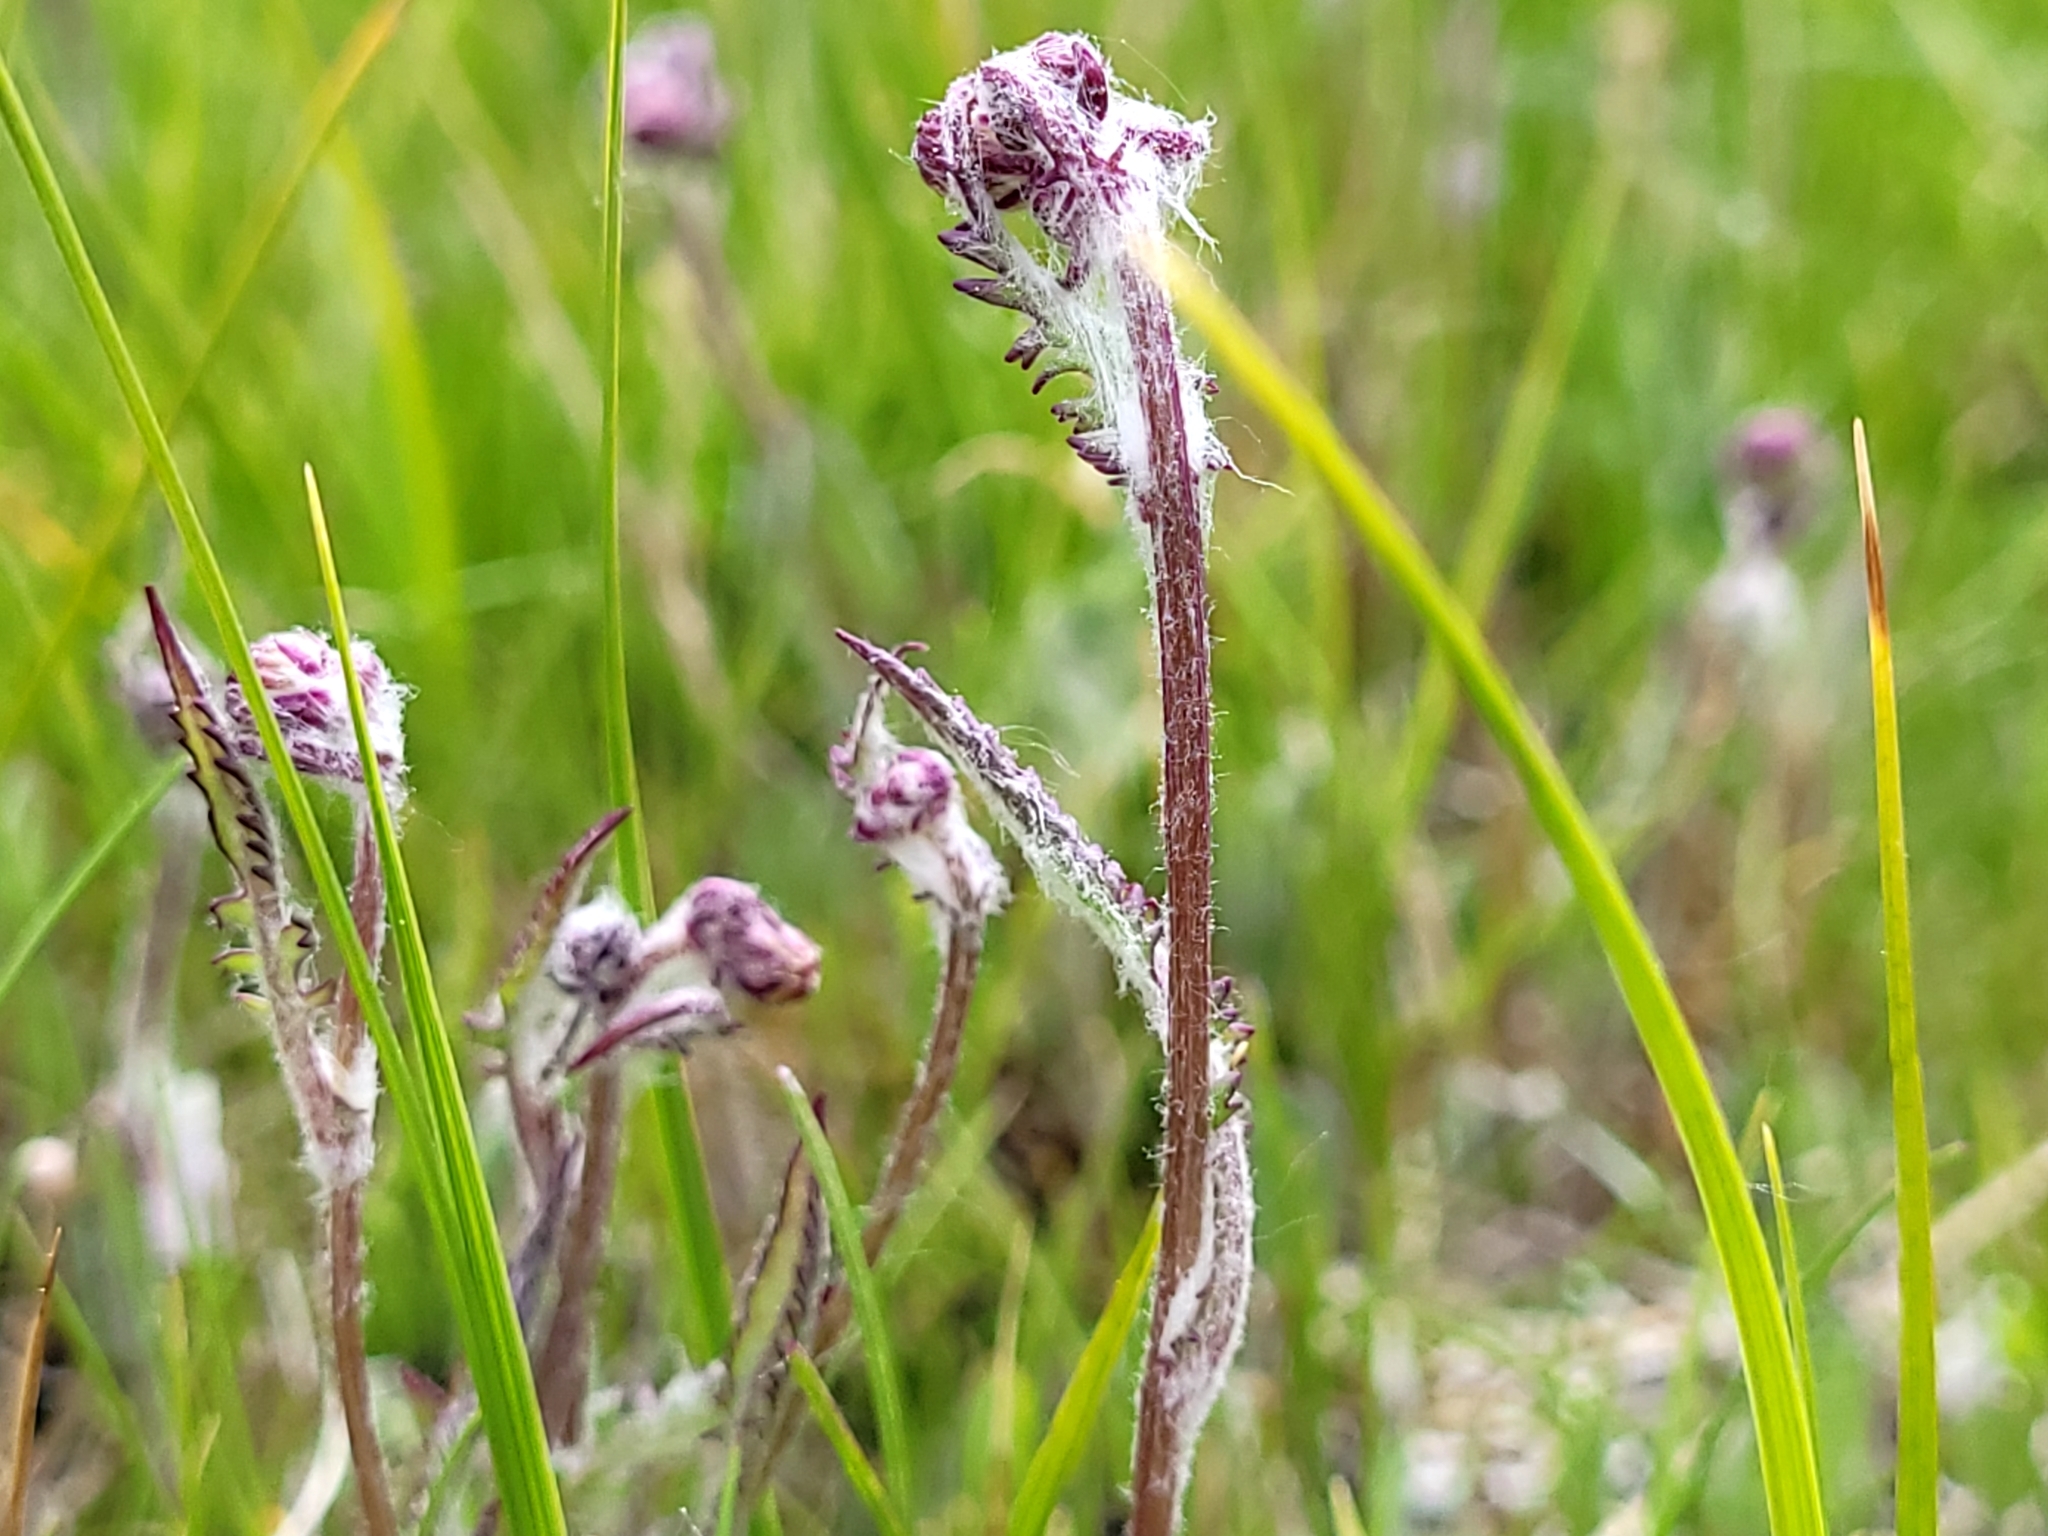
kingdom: Plantae
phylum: Tracheophyta
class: Magnoliopsida
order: Asterales
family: Asteraceae
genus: Packera
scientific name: Packera paupercula
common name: Balsam groundsel
